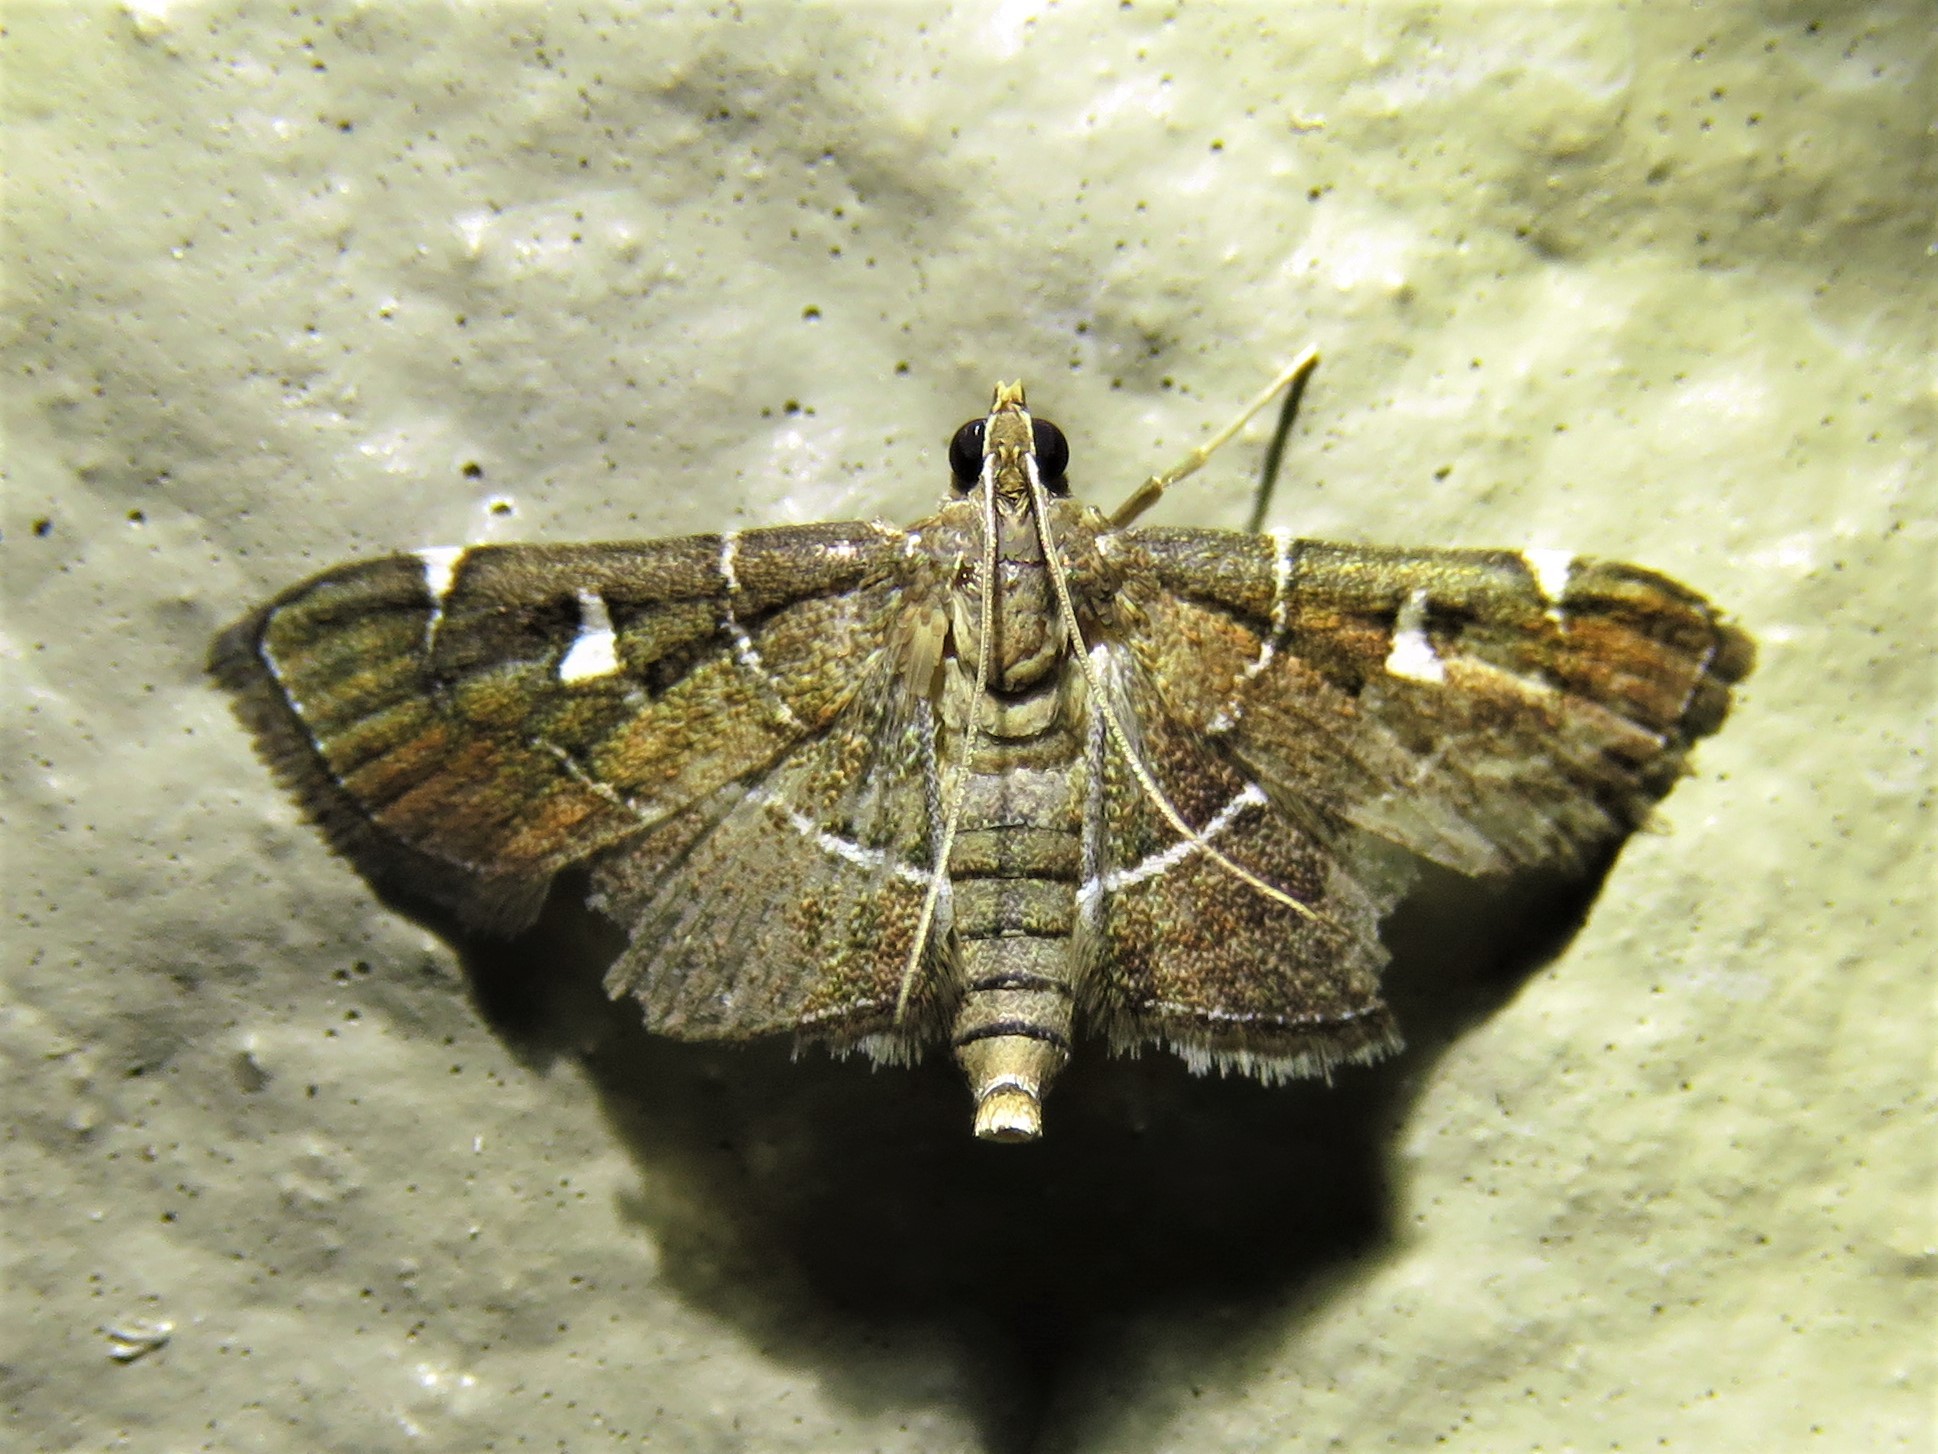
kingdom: Animalia
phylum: Arthropoda
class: Insecta
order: Lepidoptera
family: Crambidae
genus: Lamprosema
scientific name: Lamprosema victoriae
